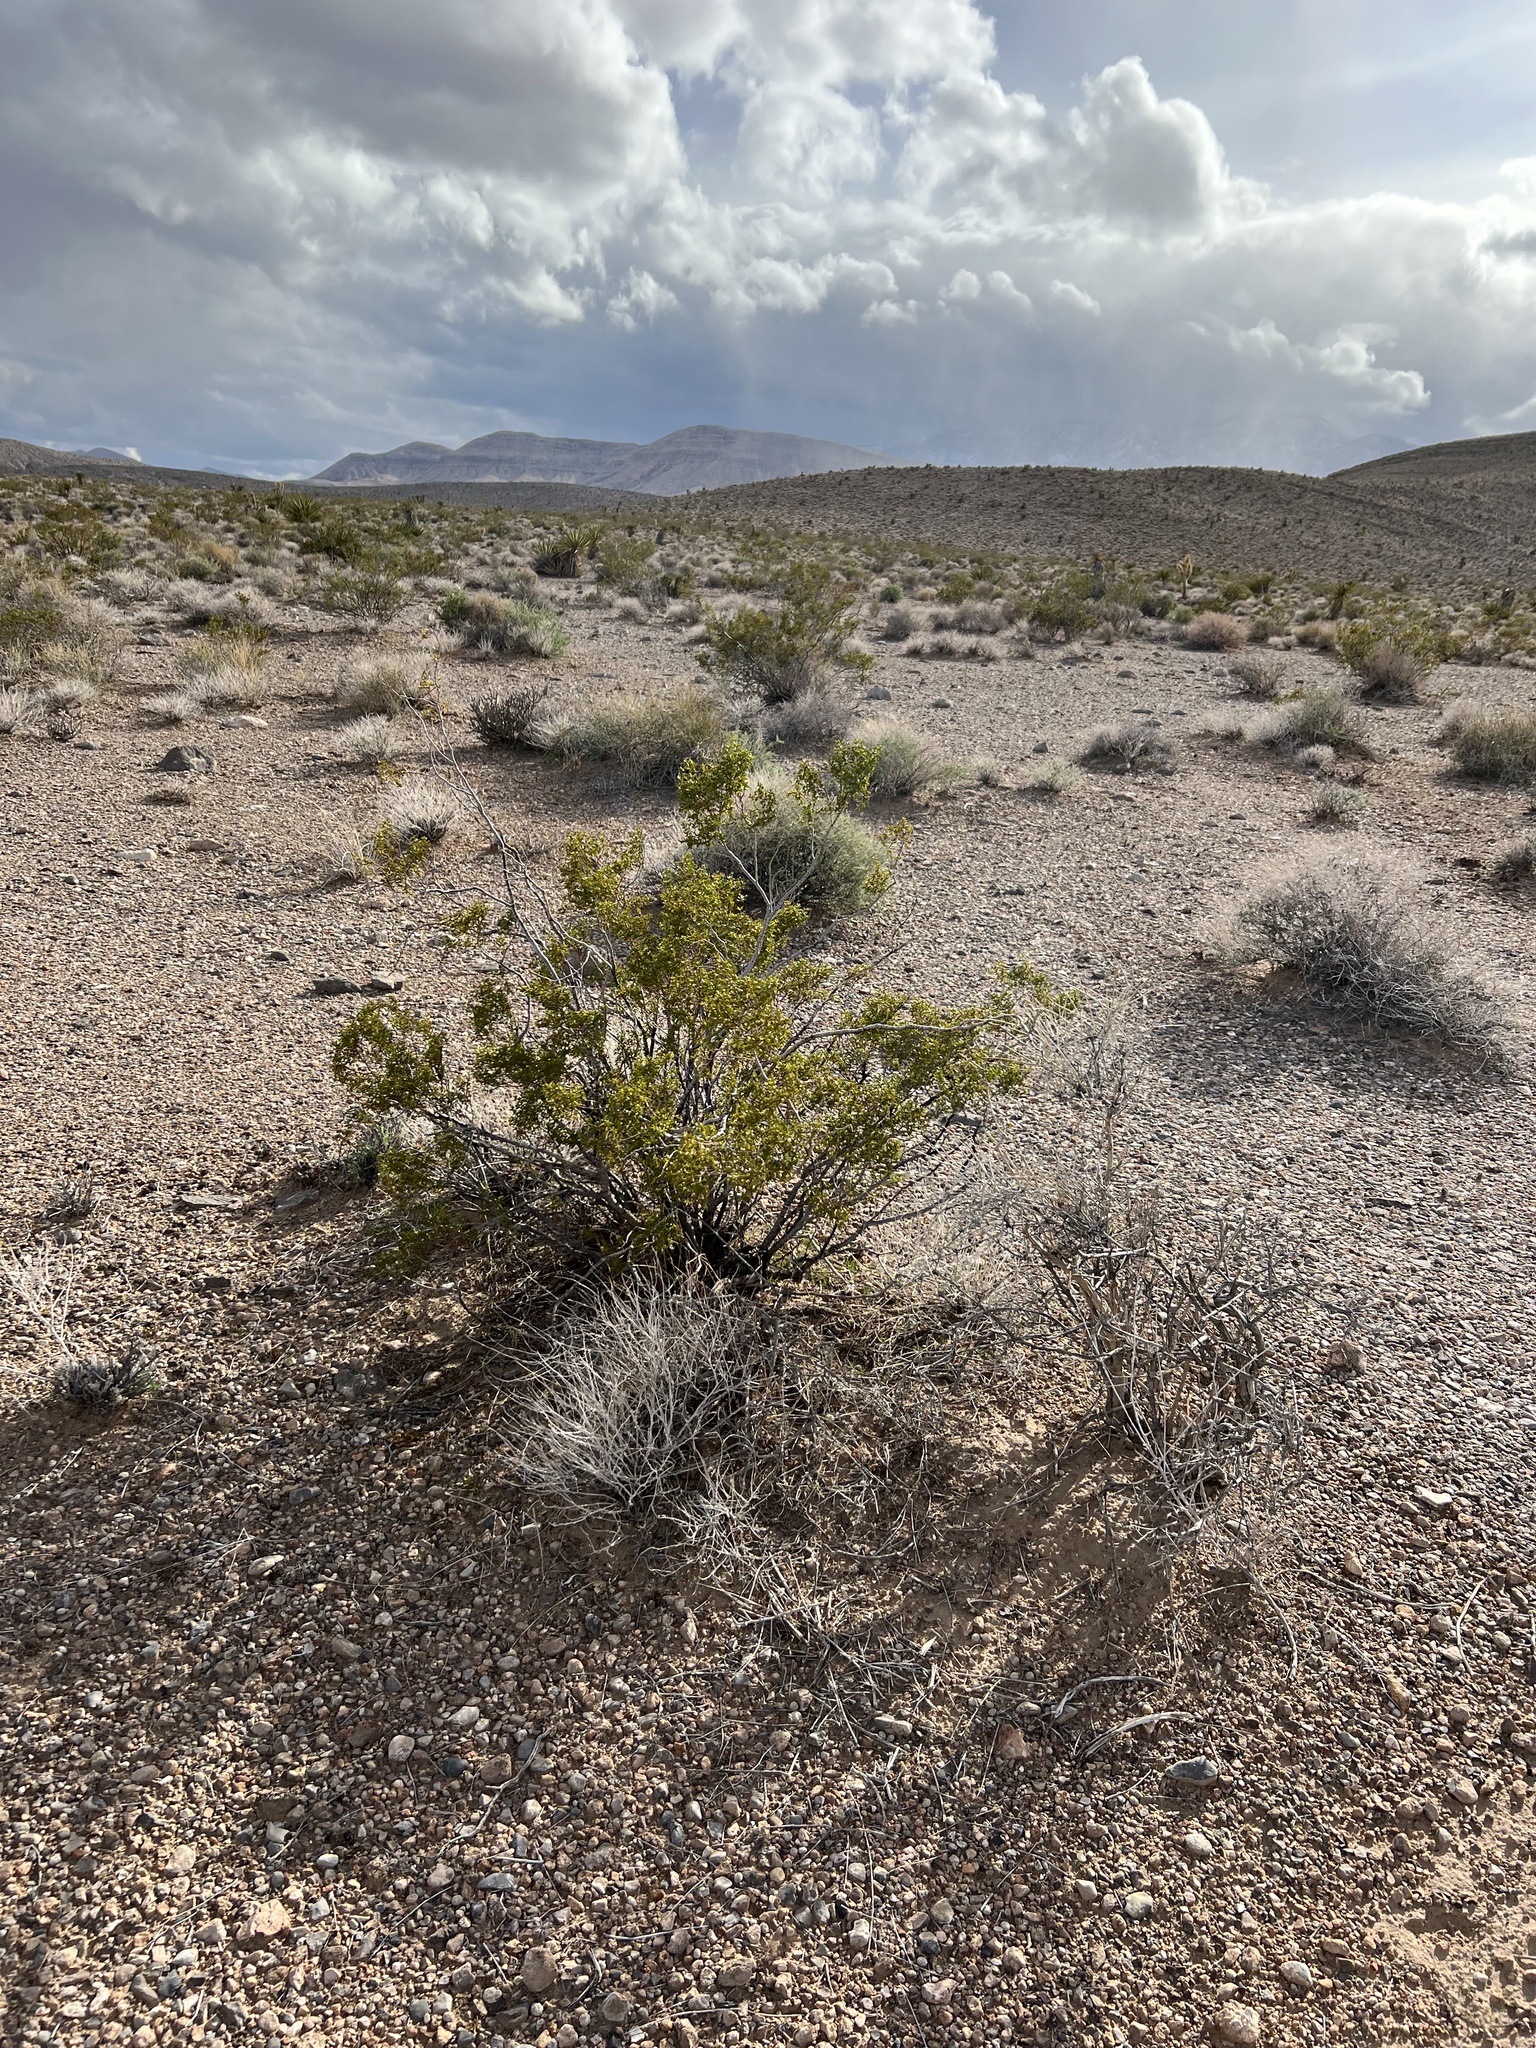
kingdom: Plantae
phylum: Tracheophyta
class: Magnoliopsida
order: Zygophyllales
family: Zygophyllaceae
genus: Larrea
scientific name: Larrea tridentata
